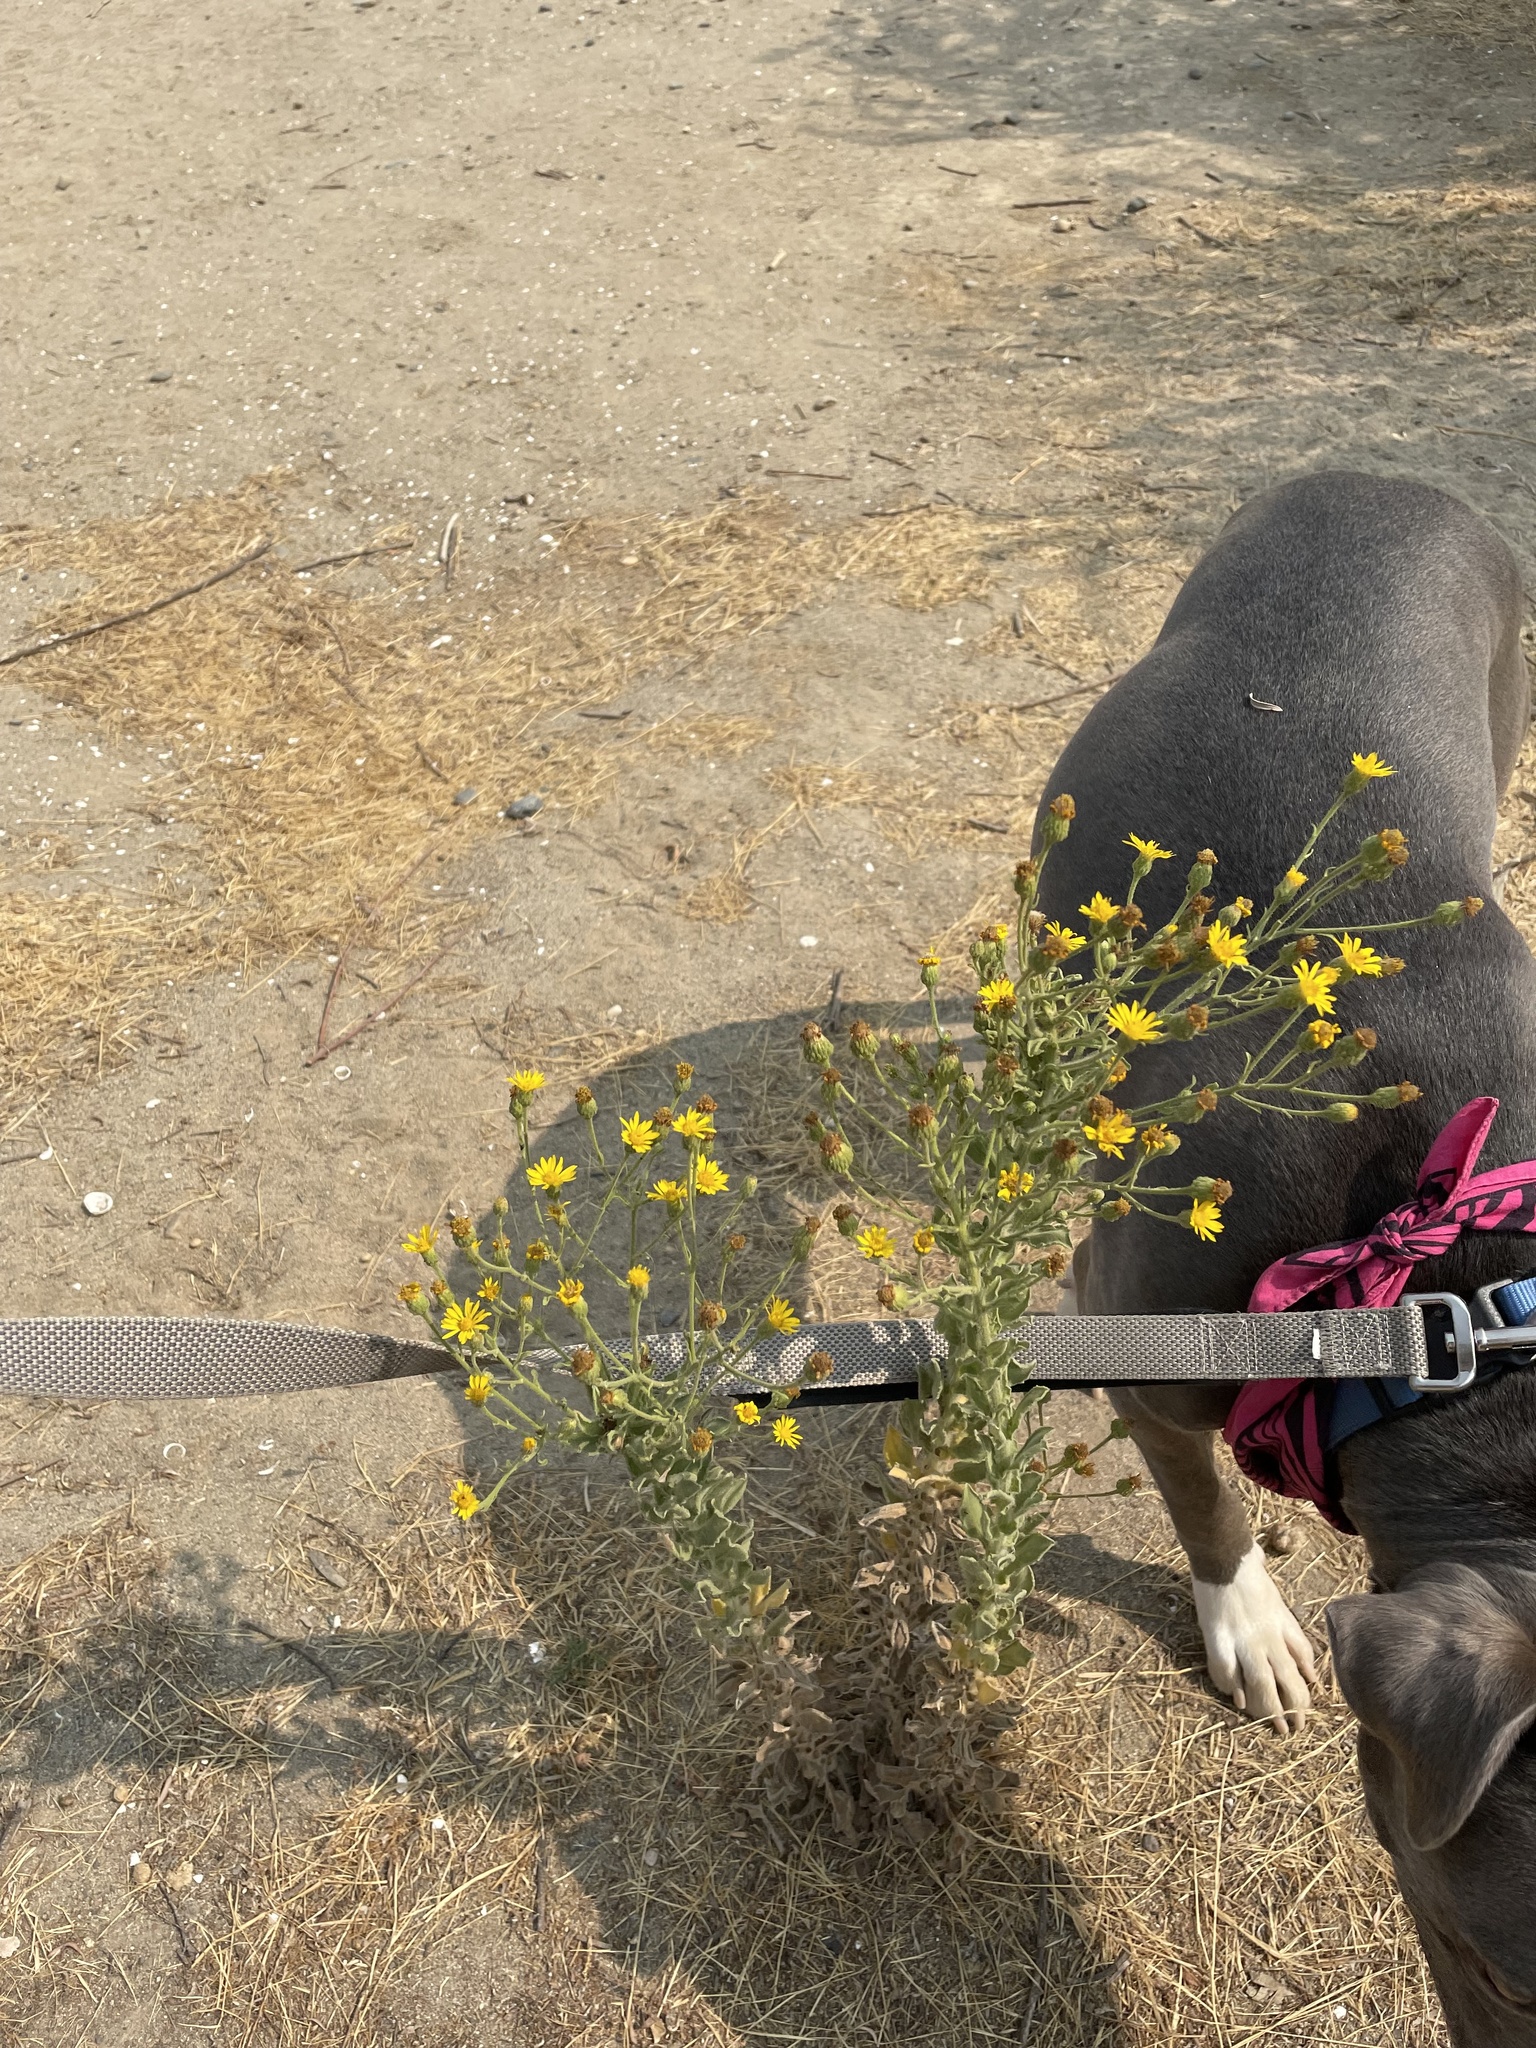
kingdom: Plantae
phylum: Tracheophyta
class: Magnoliopsida
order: Asterales
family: Asteraceae
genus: Heterotheca
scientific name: Heterotheca grandiflora
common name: Telegraphweed
